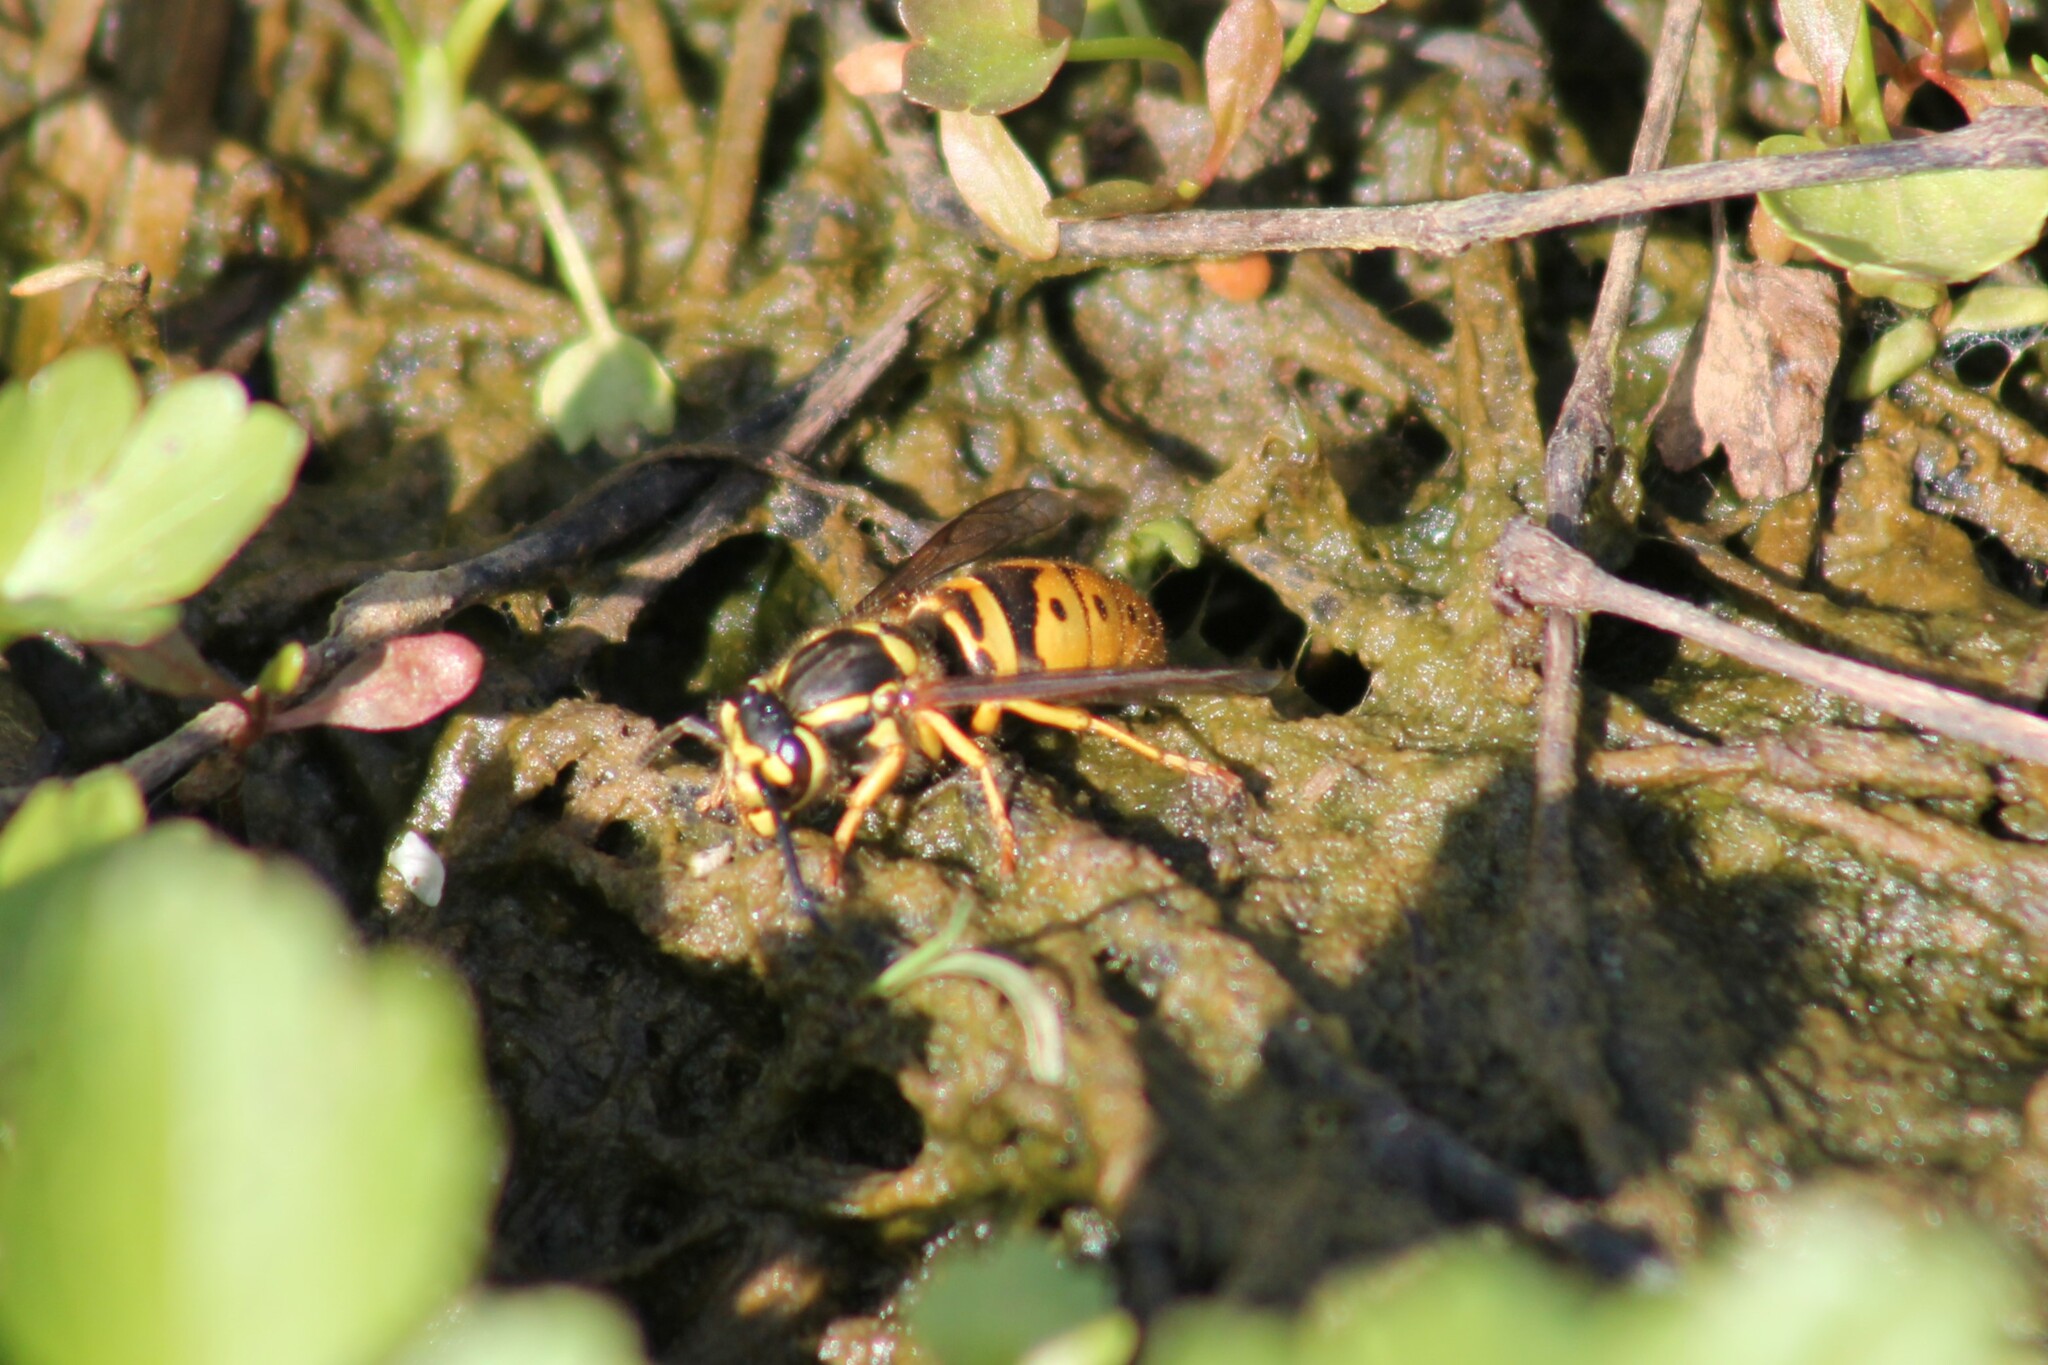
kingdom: Animalia
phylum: Arthropoda
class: Insecta
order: Hymenoptera
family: Vespidae
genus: Vespula
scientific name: Vespula maculifrons
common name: Eastern yellowjacket
